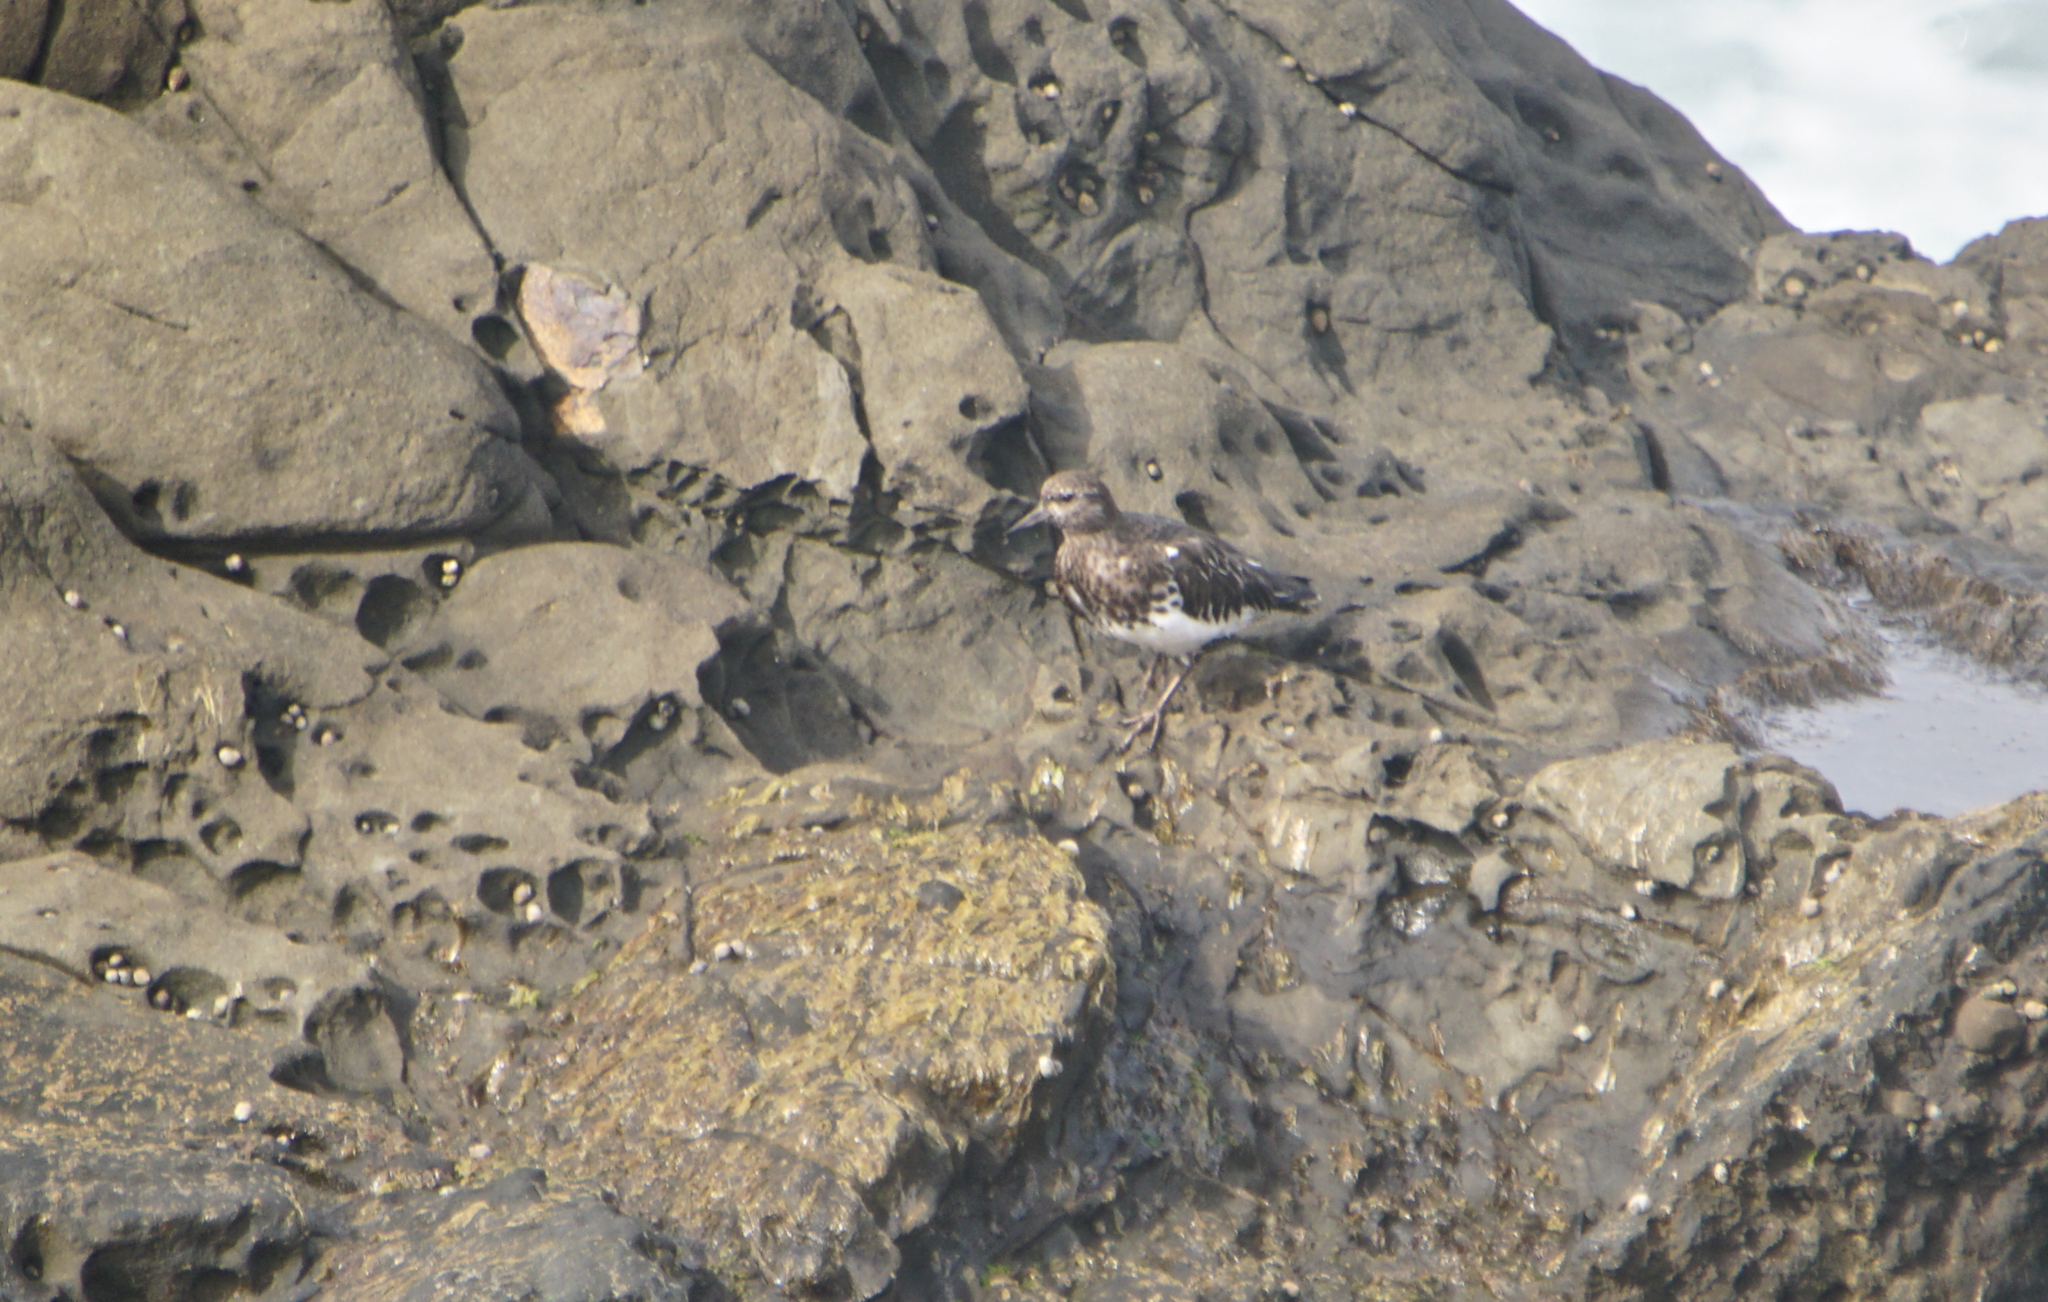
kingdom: Animalia
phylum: Chordata
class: Aves
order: Charadriiformes
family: Scolopacidae
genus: Arenaria
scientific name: Arenaria melanocephala
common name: Black turnstone
